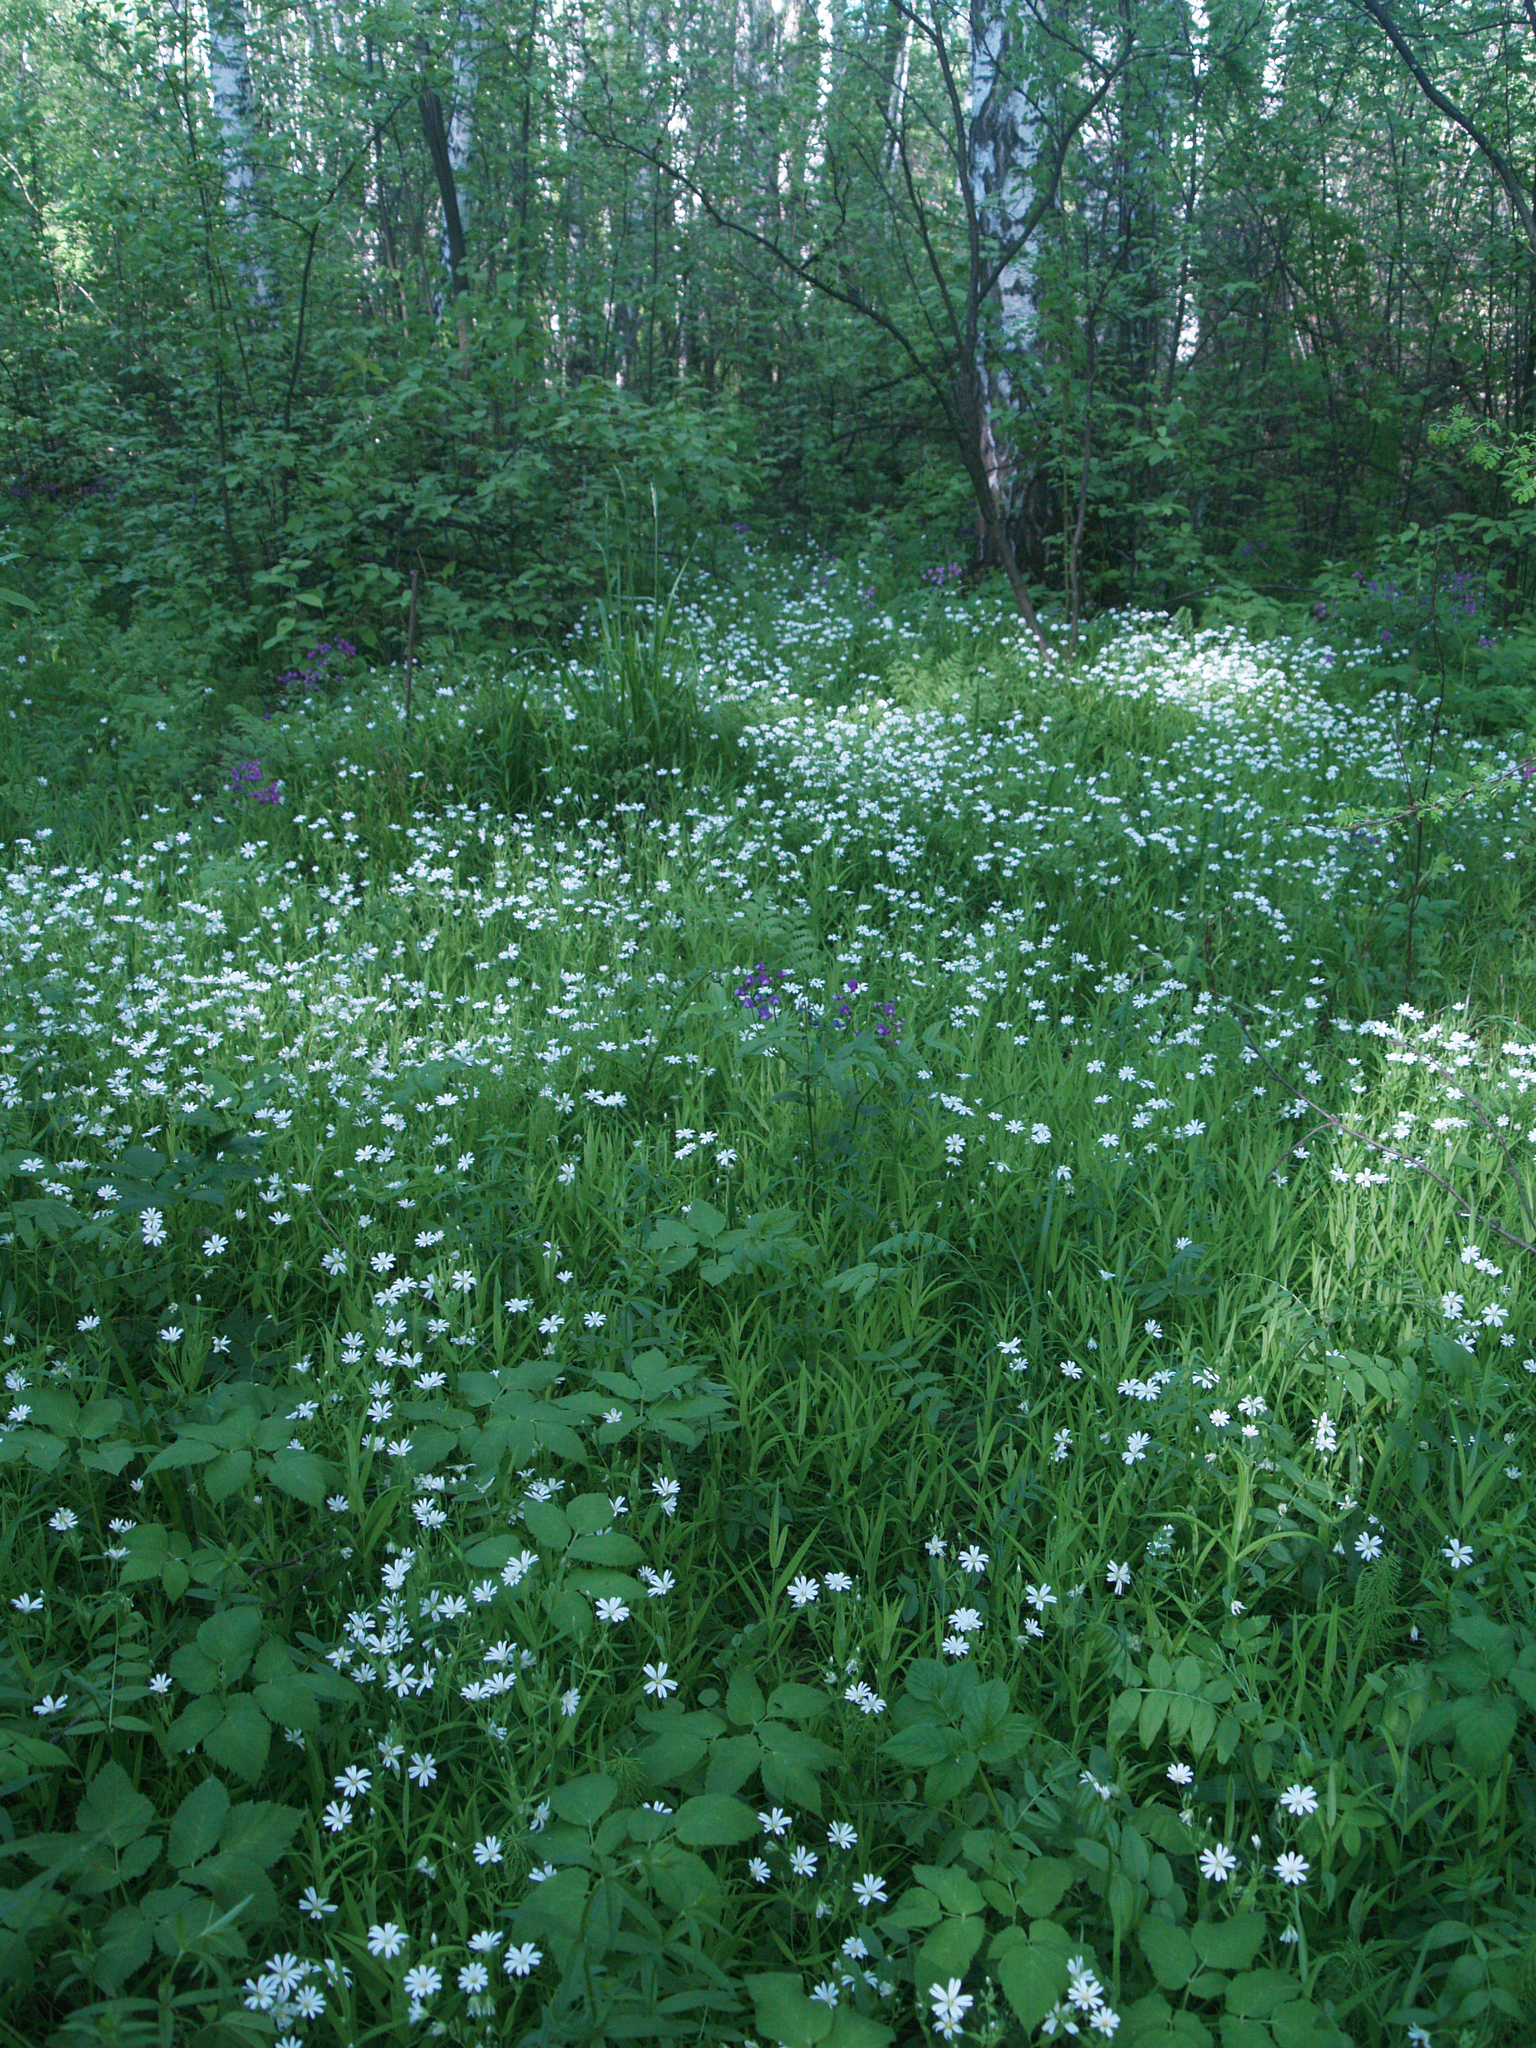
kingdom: Plantae
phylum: Tracheophyta
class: Magnoliopsida
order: Caryophyllales
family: Caryophyllaceae
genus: Rabelera
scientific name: Rabelera holostea
